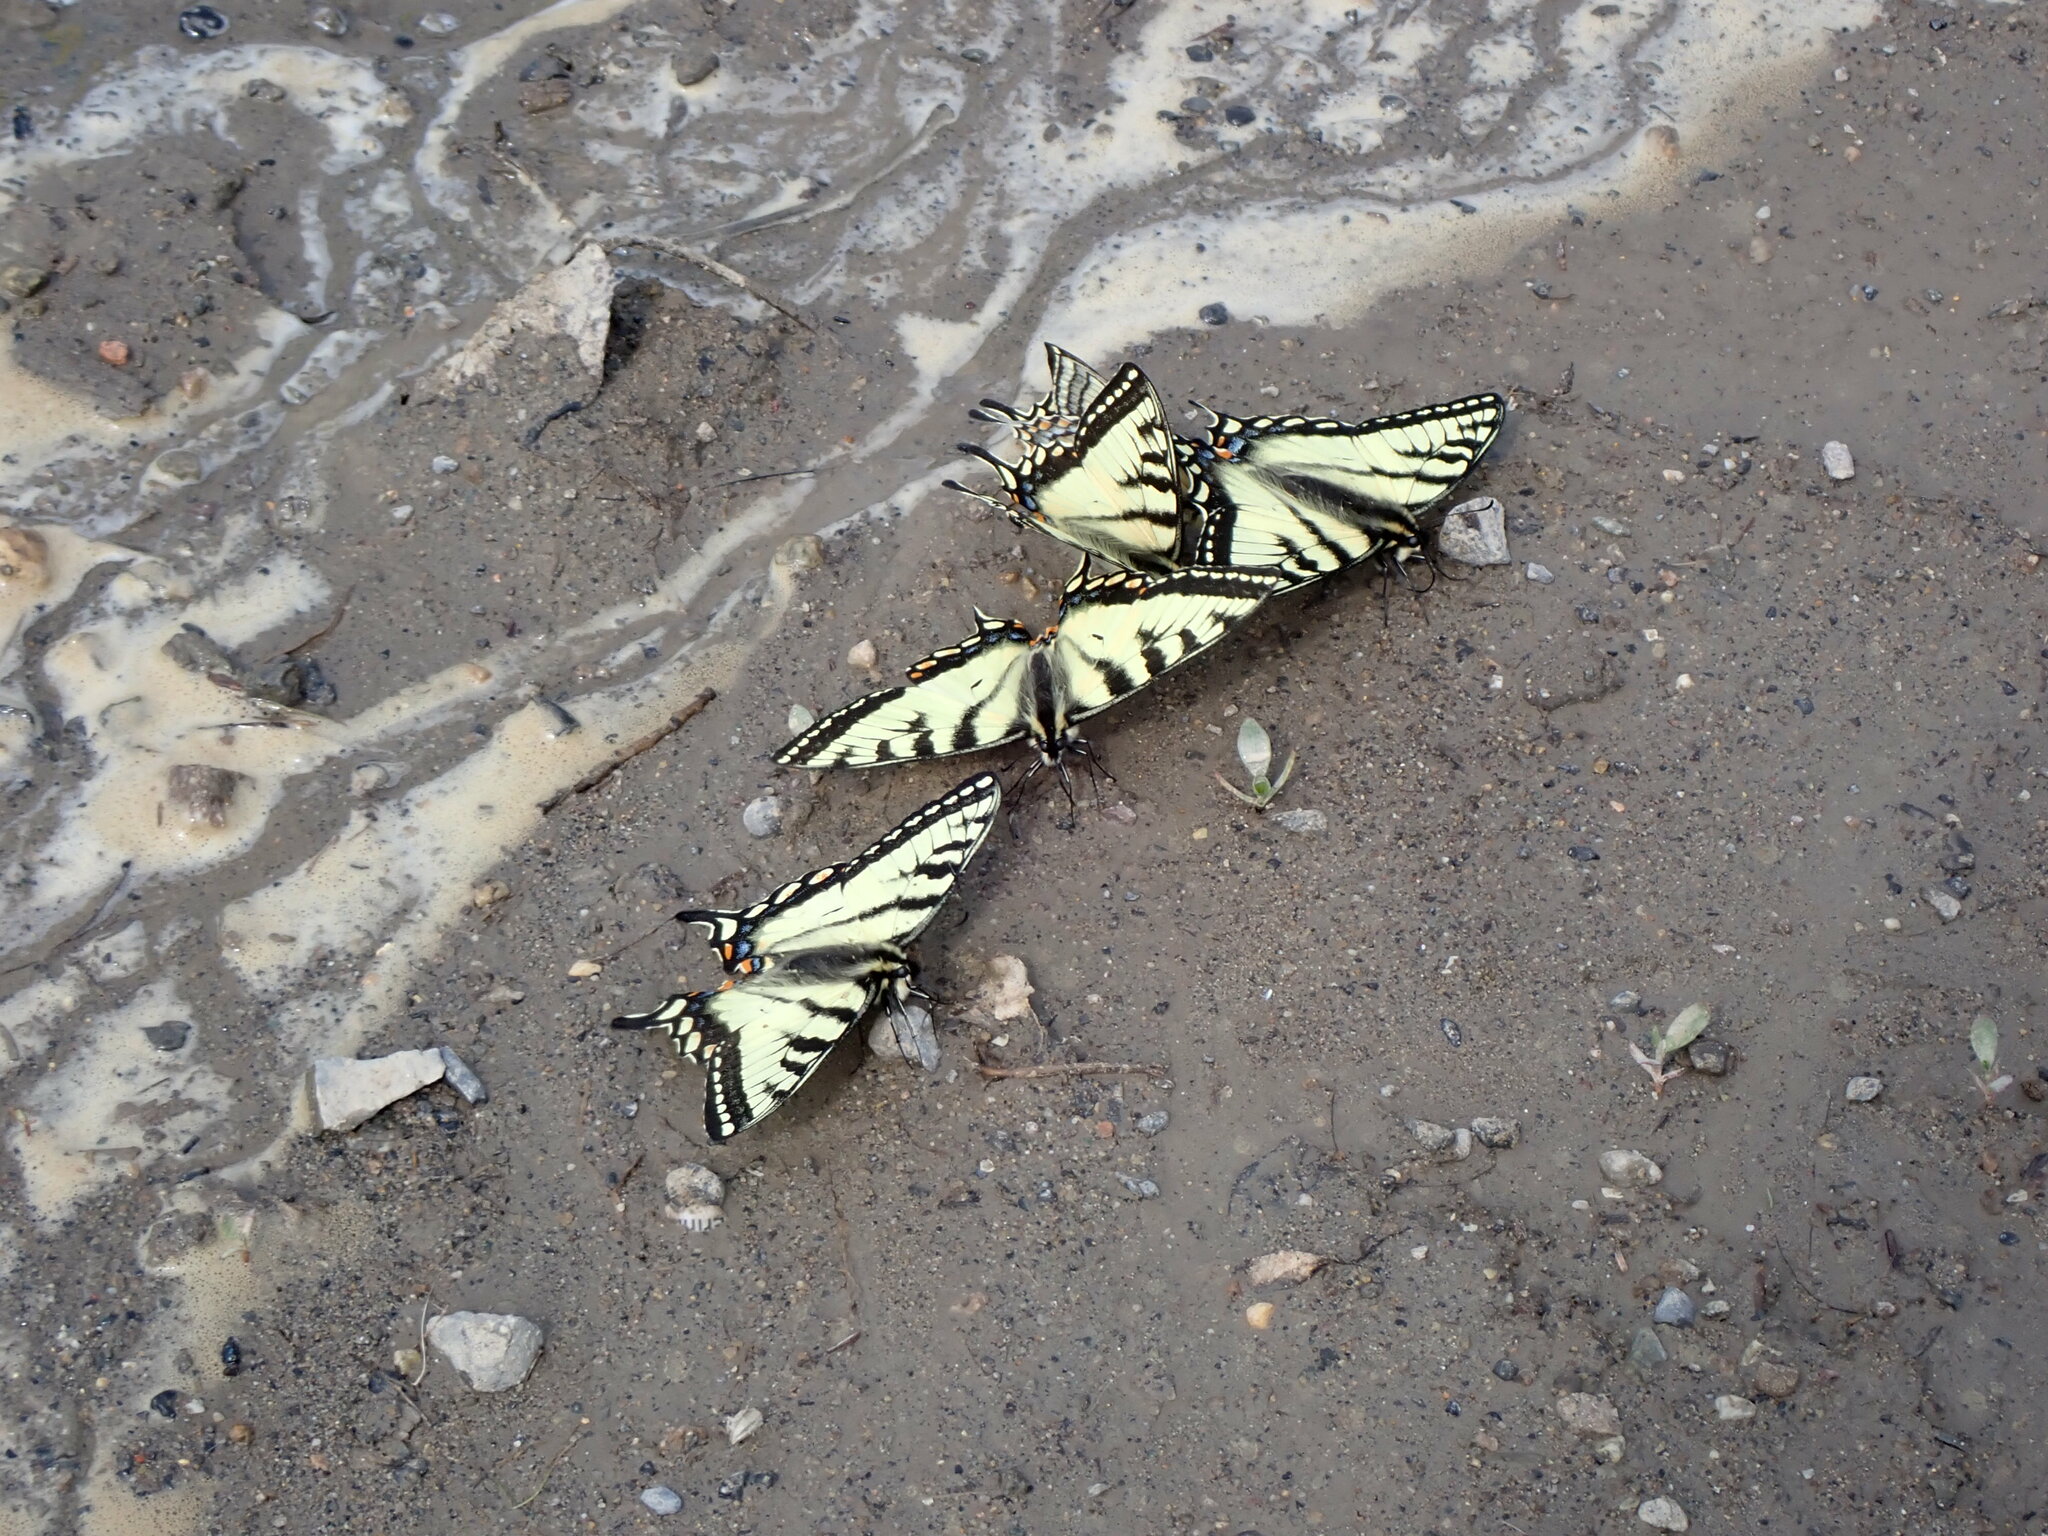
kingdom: Animalia
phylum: Arthropoda
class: Insecta
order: Lepidoptera
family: Papilionidae
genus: Papilio
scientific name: Papilio canadensis
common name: Canadian tiger swallowtail
